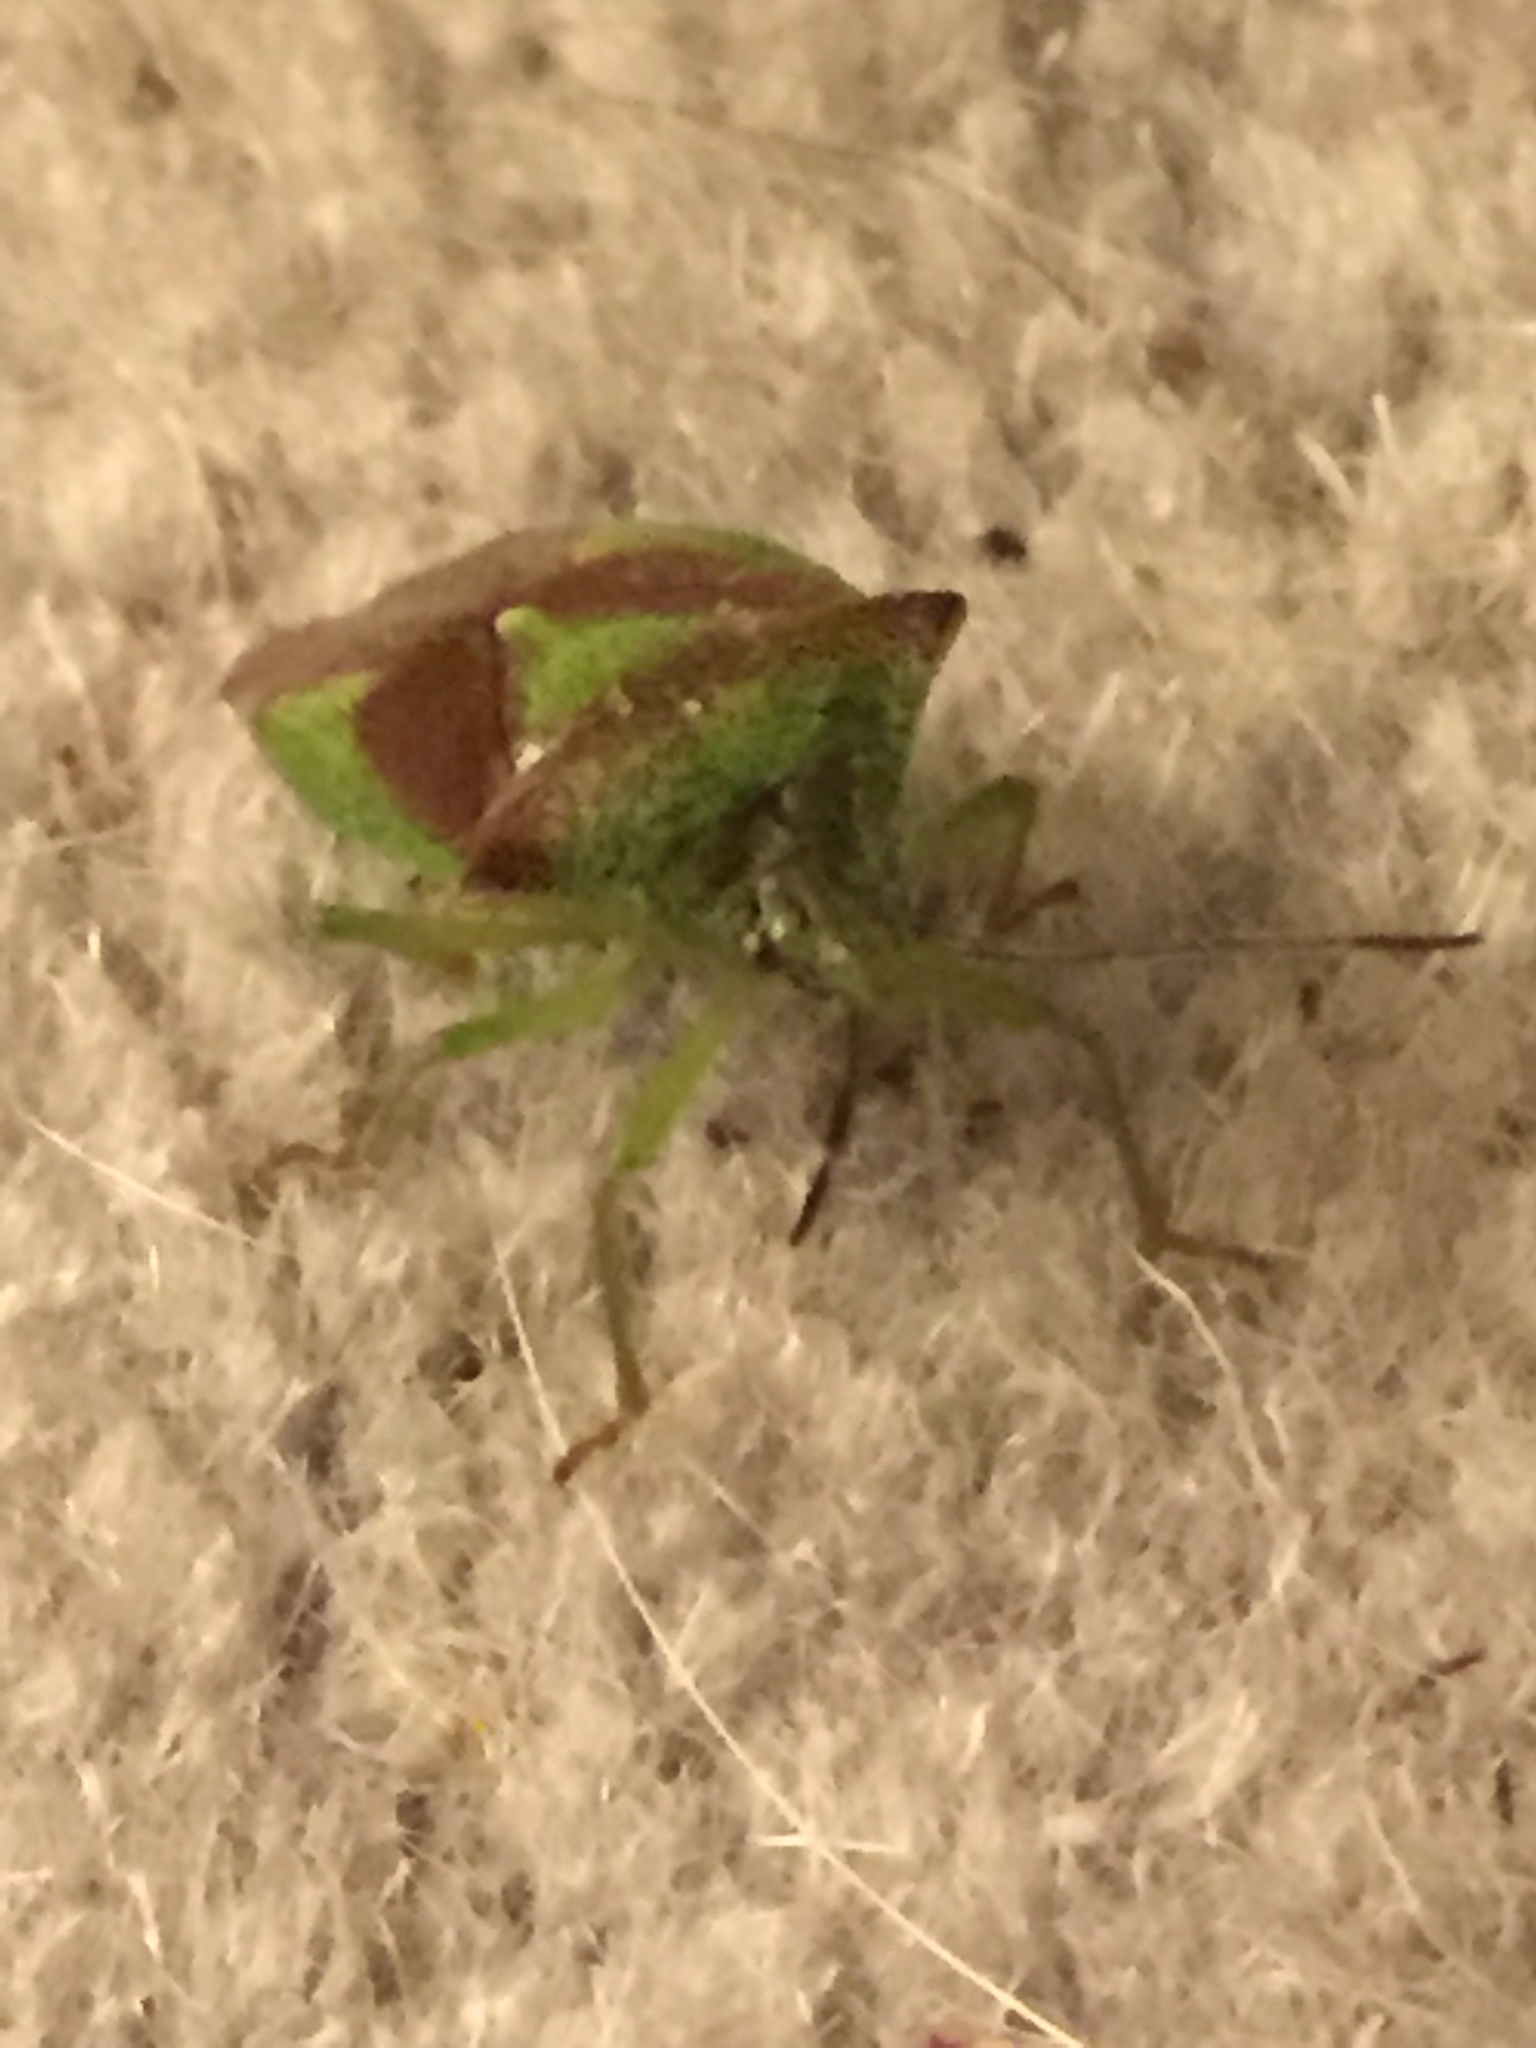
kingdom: Animalia
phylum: Arthropoda
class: Insecta
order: Hemiptera
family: Acanthosomatidae
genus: Acanthosoma
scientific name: Acanthosoma haemorrhoidale
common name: Hawthorn shieldbug
